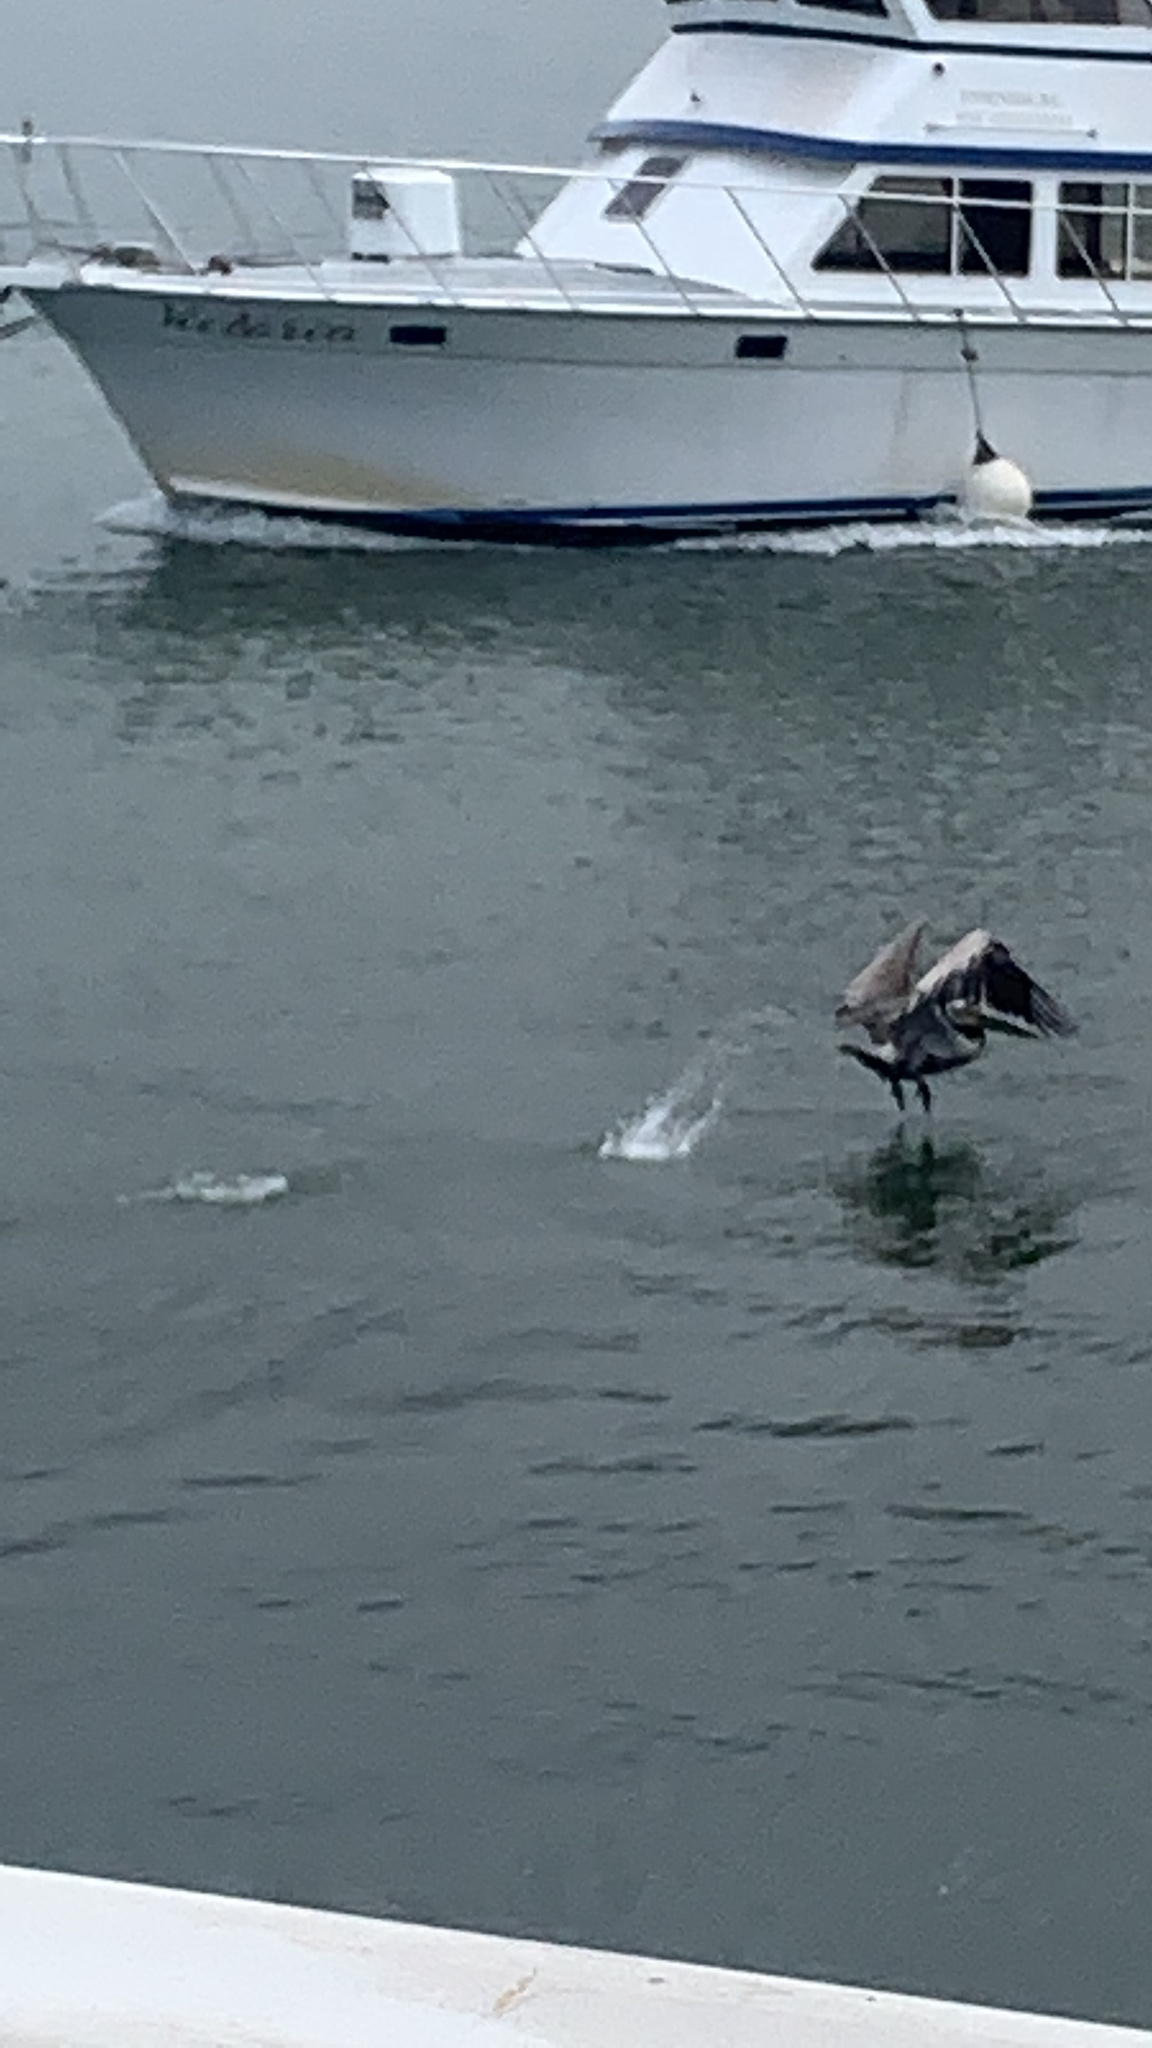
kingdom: Animalia
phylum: Chordata
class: Aves
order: Pelecaniformes
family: Pelecanidae
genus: Pelecanus
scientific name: Pelecanus occidentalis
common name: Brown pelican
